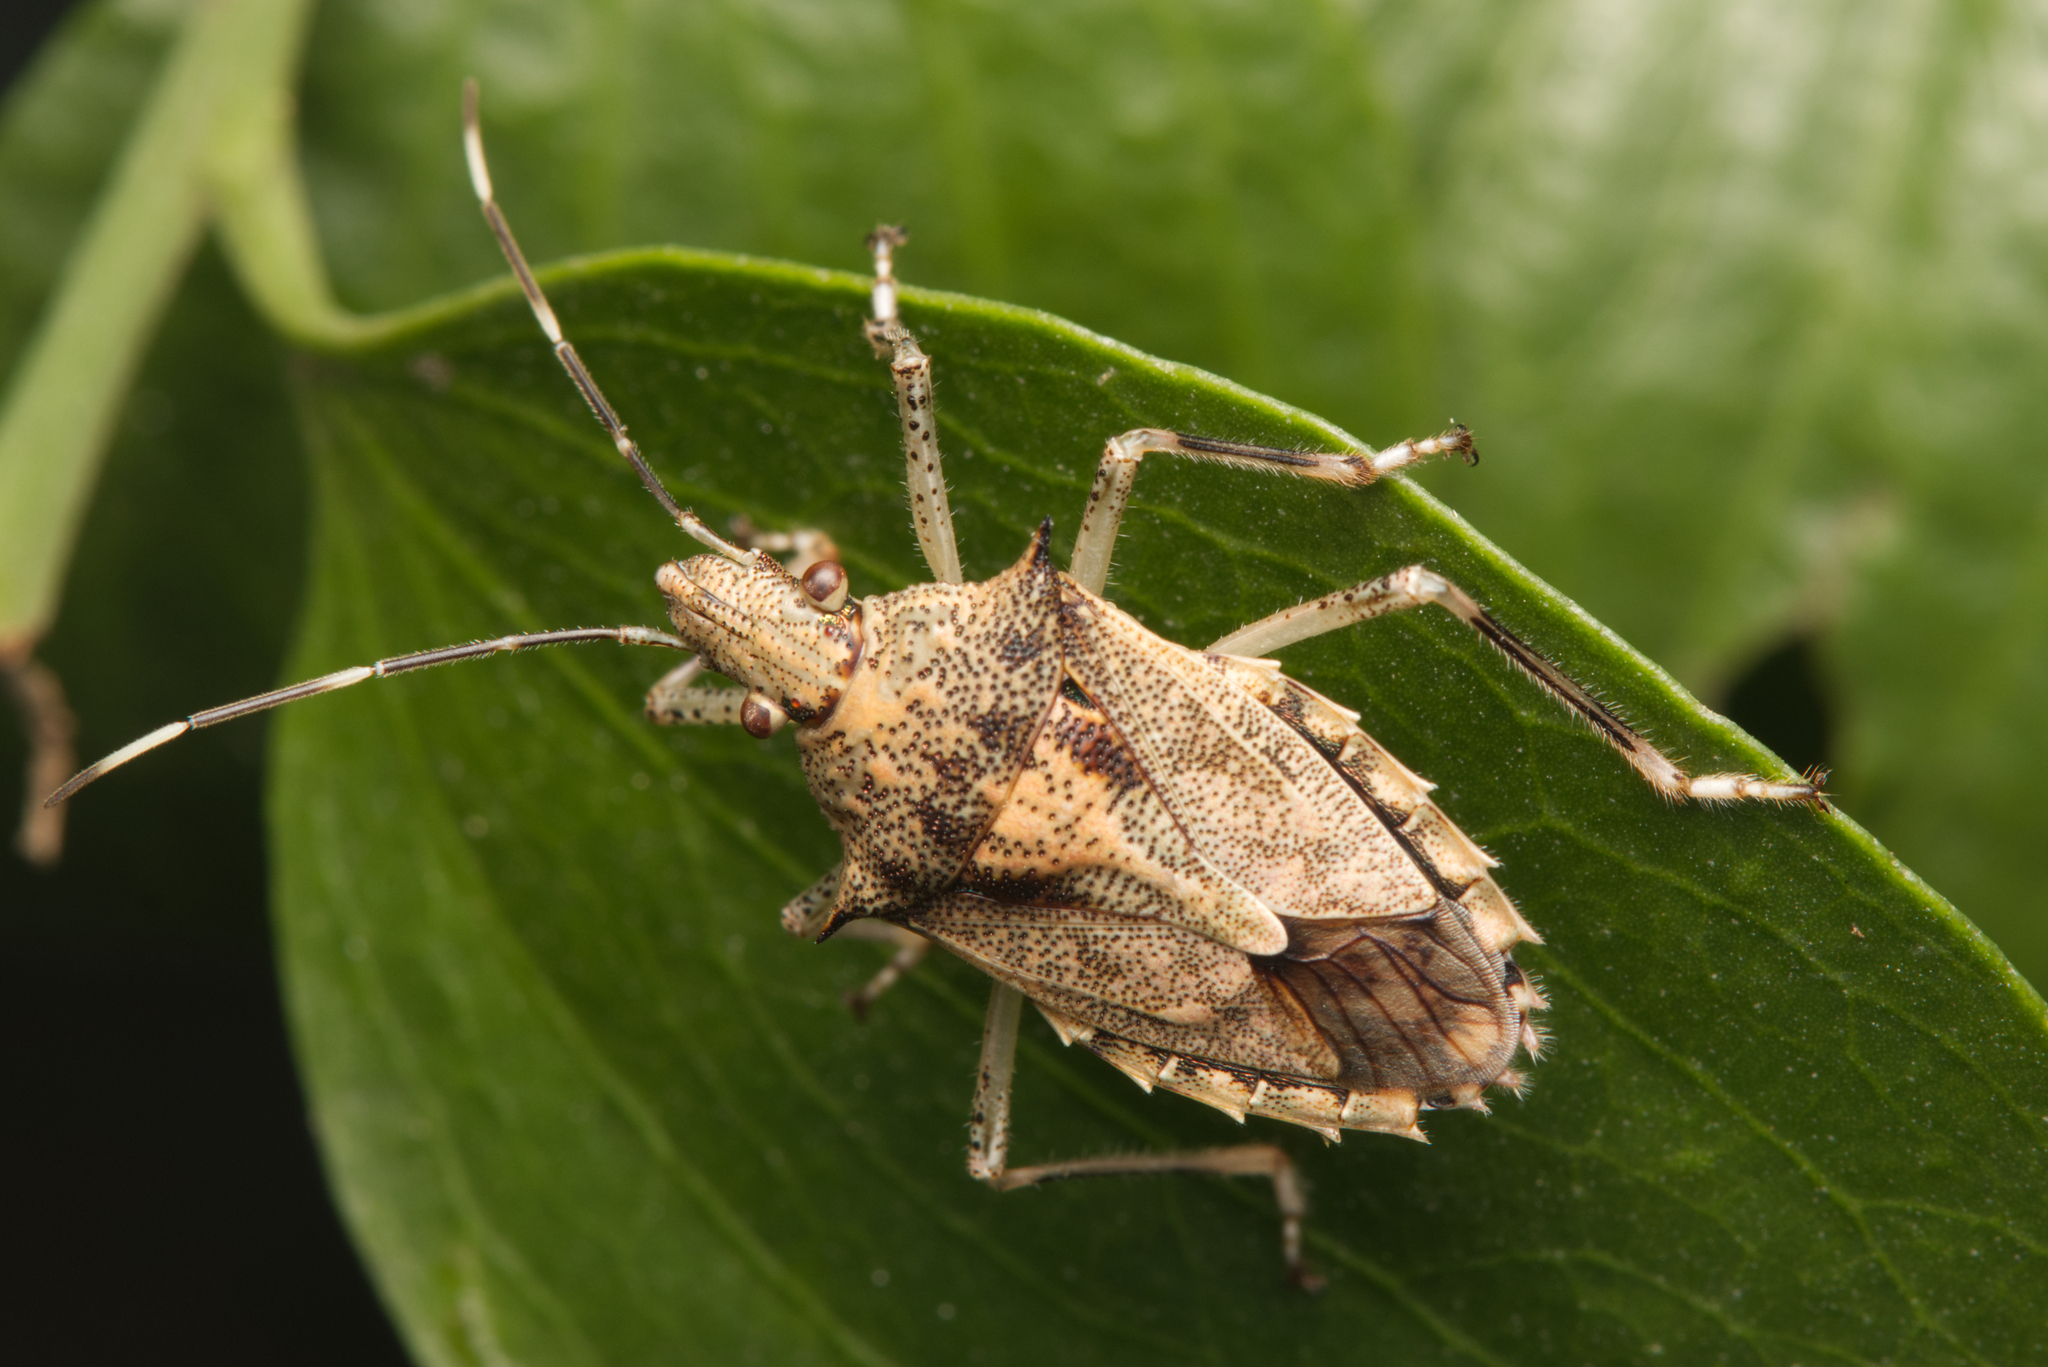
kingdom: Animalia
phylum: Arthropoda
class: Insecta
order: Hemiptera
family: Pentatomidae
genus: Bromocoris
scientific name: Bromocoris
